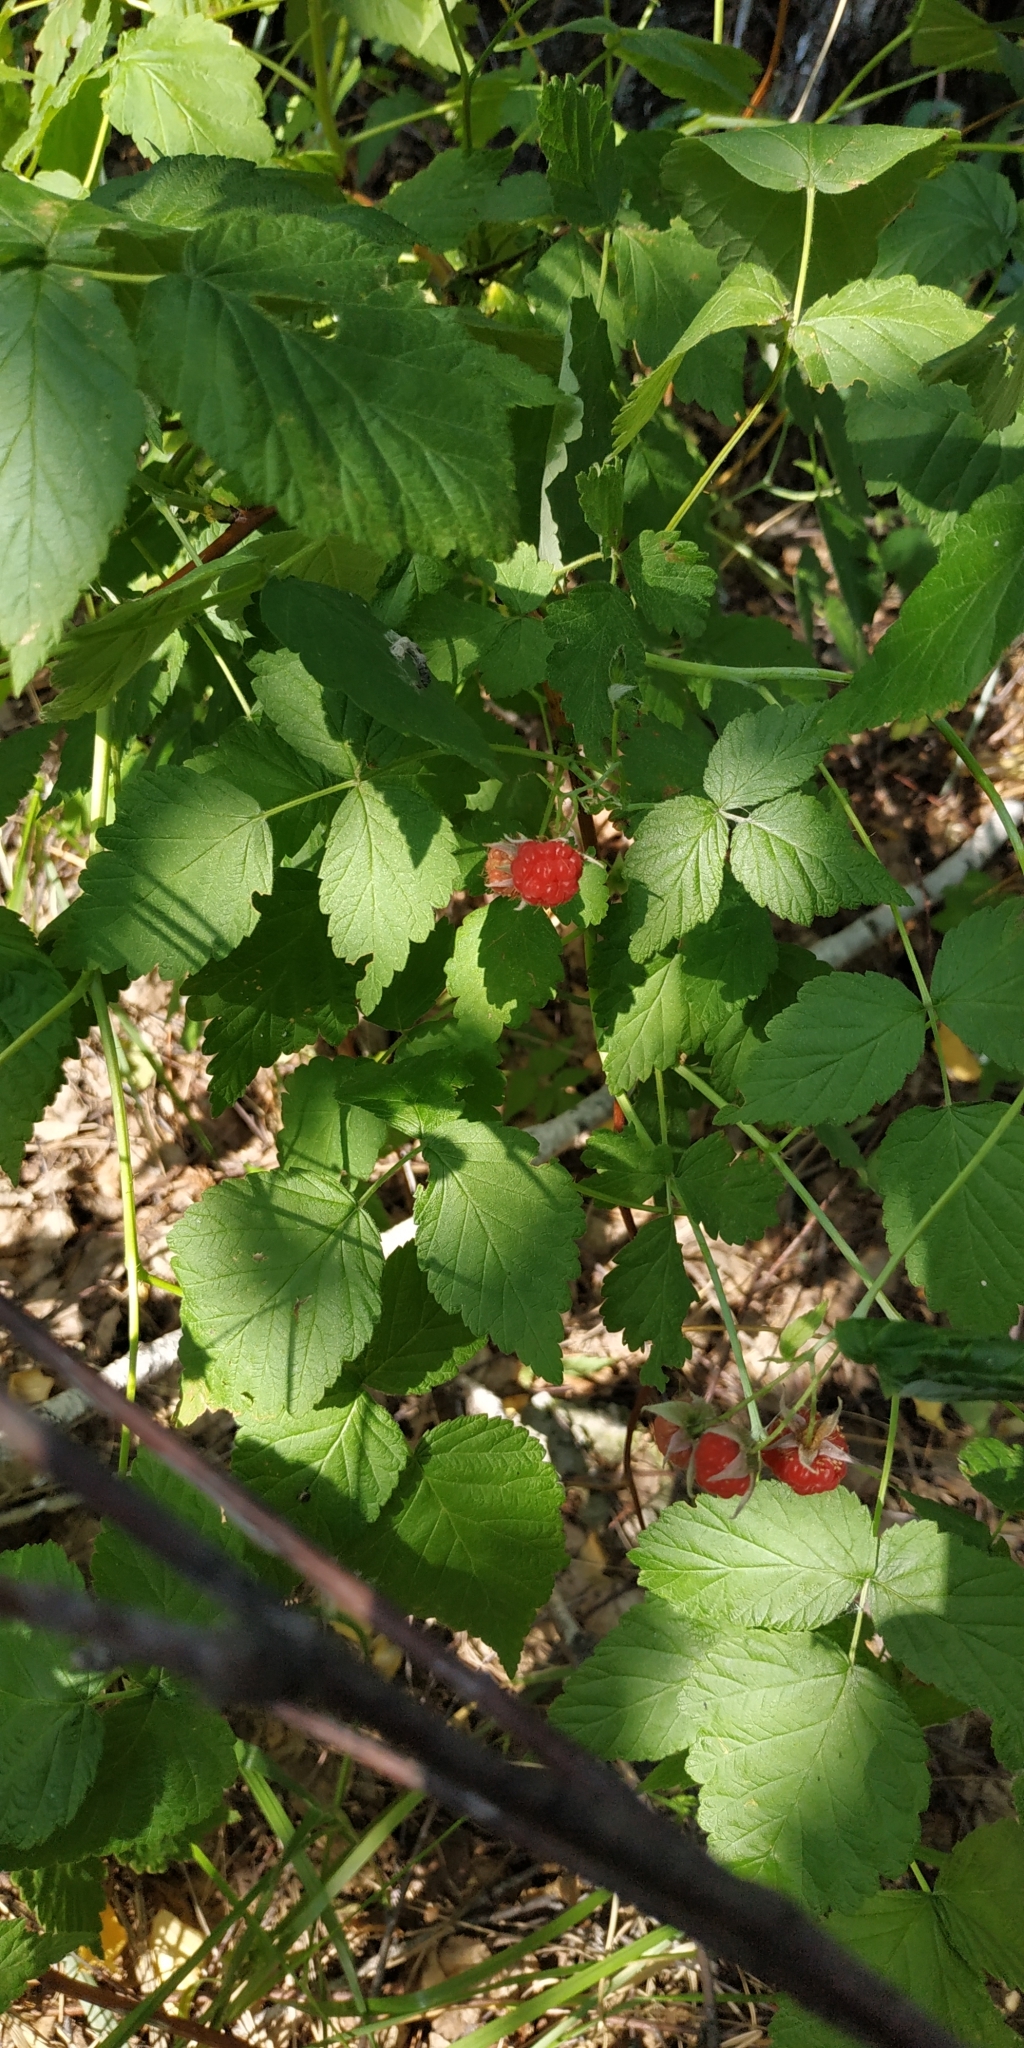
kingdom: Plantae
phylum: Tracheophyta
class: Magnoliopsida
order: Rosales
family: Rosaceae
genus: Rubus
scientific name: Rubus idaeus
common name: Raspberry
